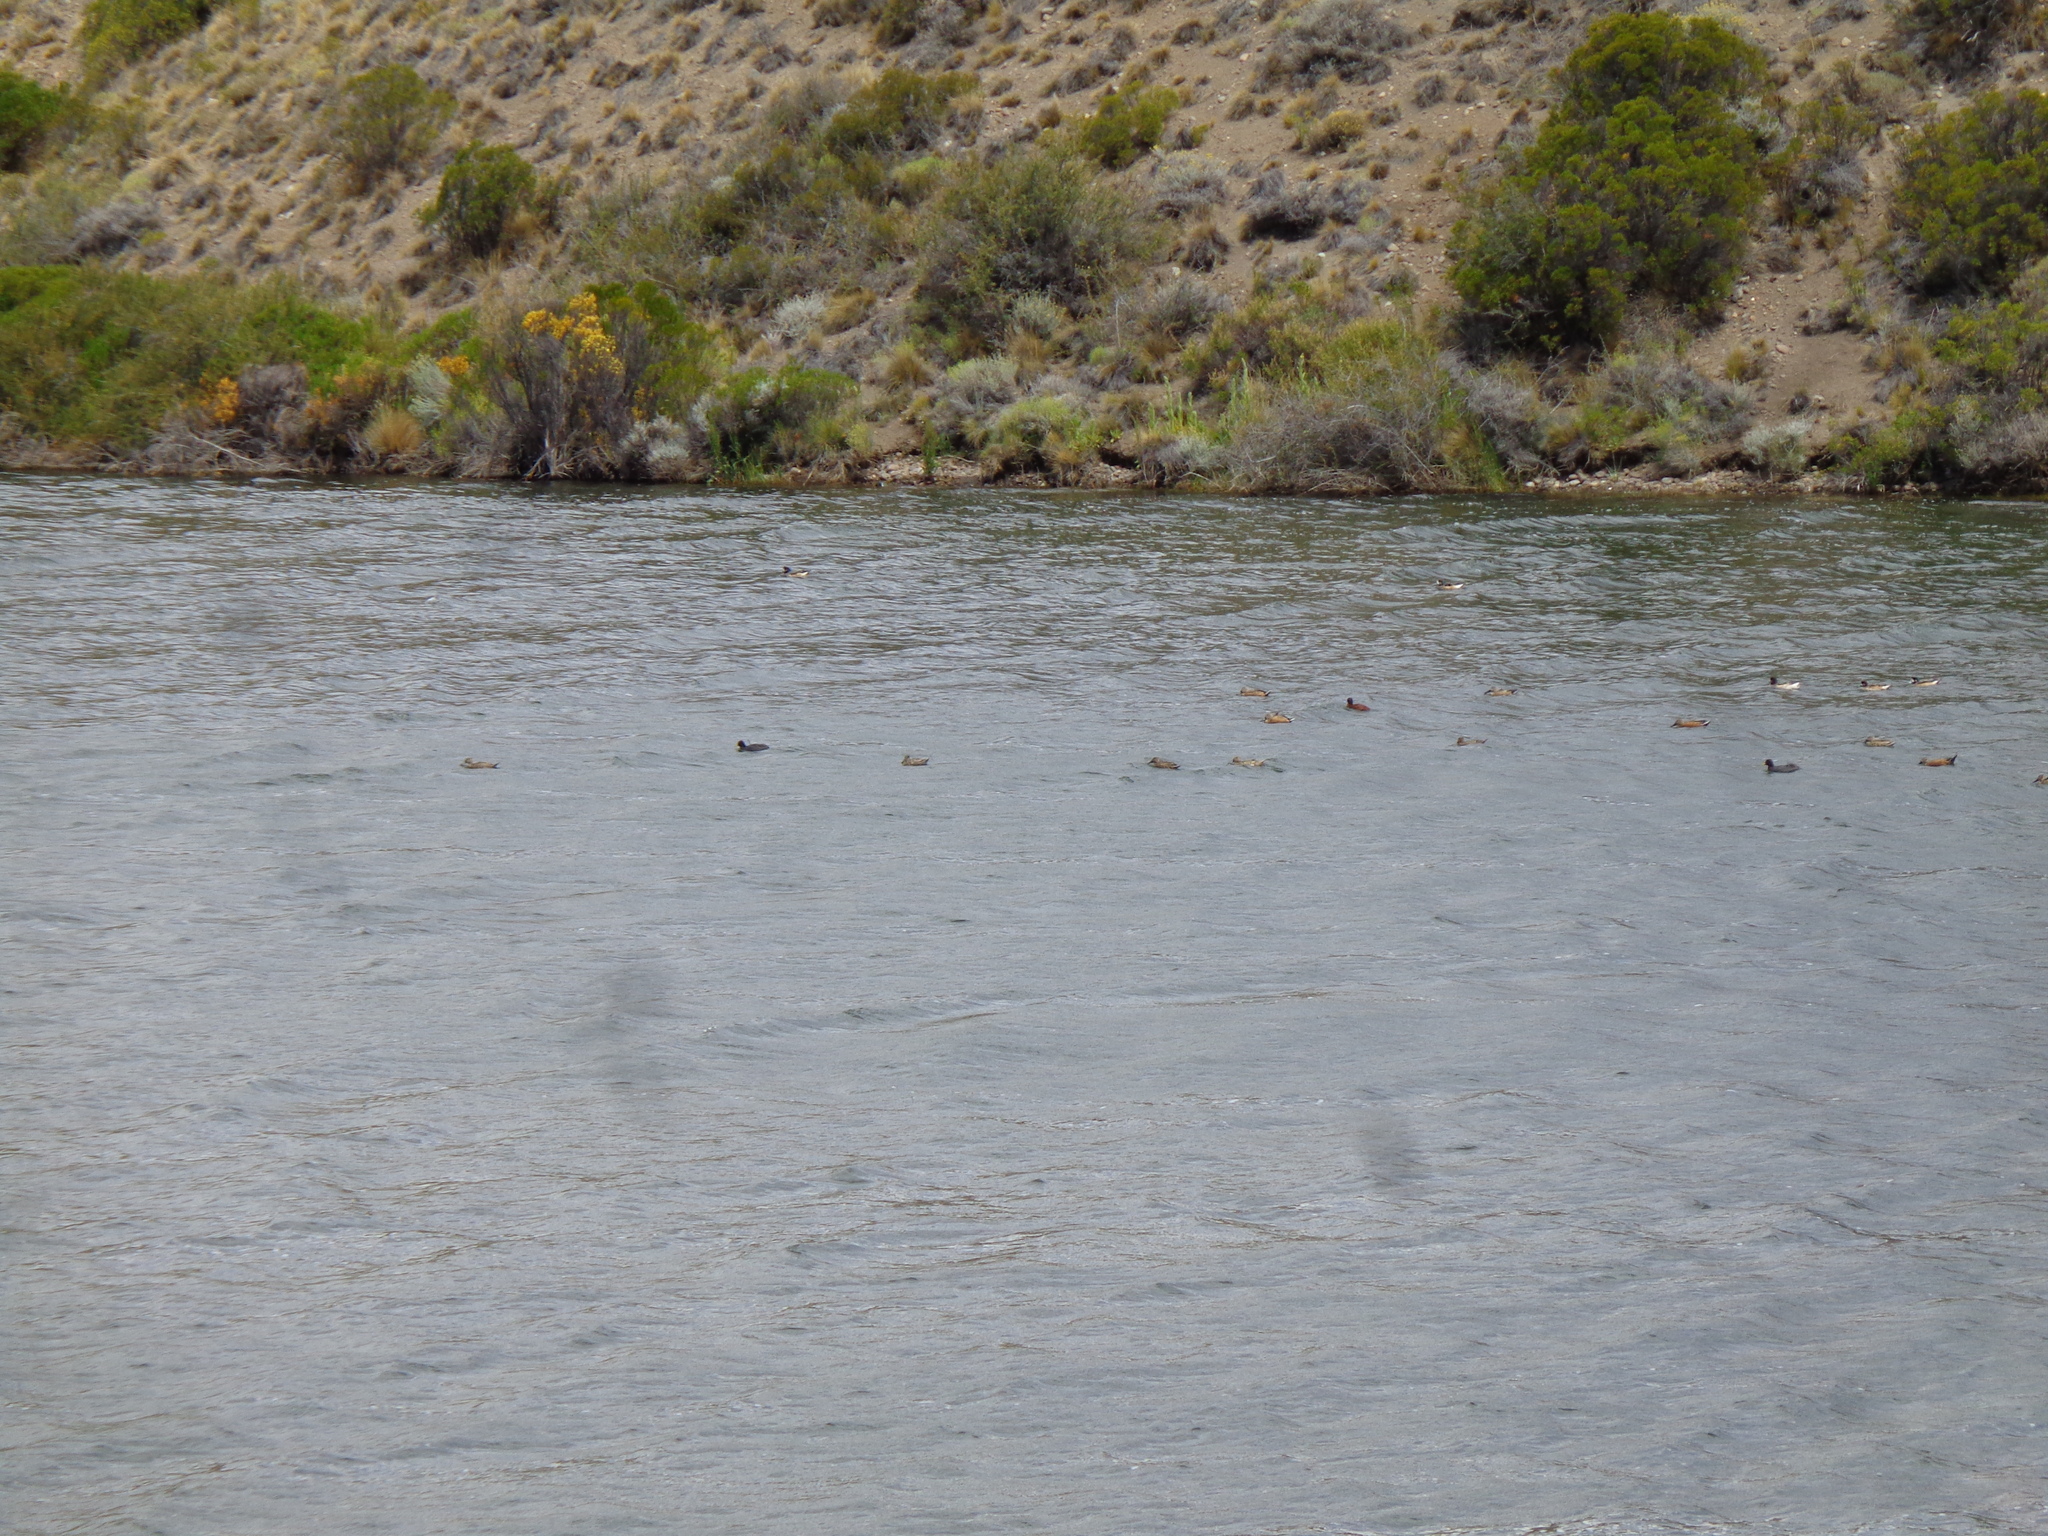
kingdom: Animalia
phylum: Chordata
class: Aves
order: Anseriformes
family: Anatidae
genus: Mareca
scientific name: Mareca sibilatrix
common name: Chiloe wigeon
